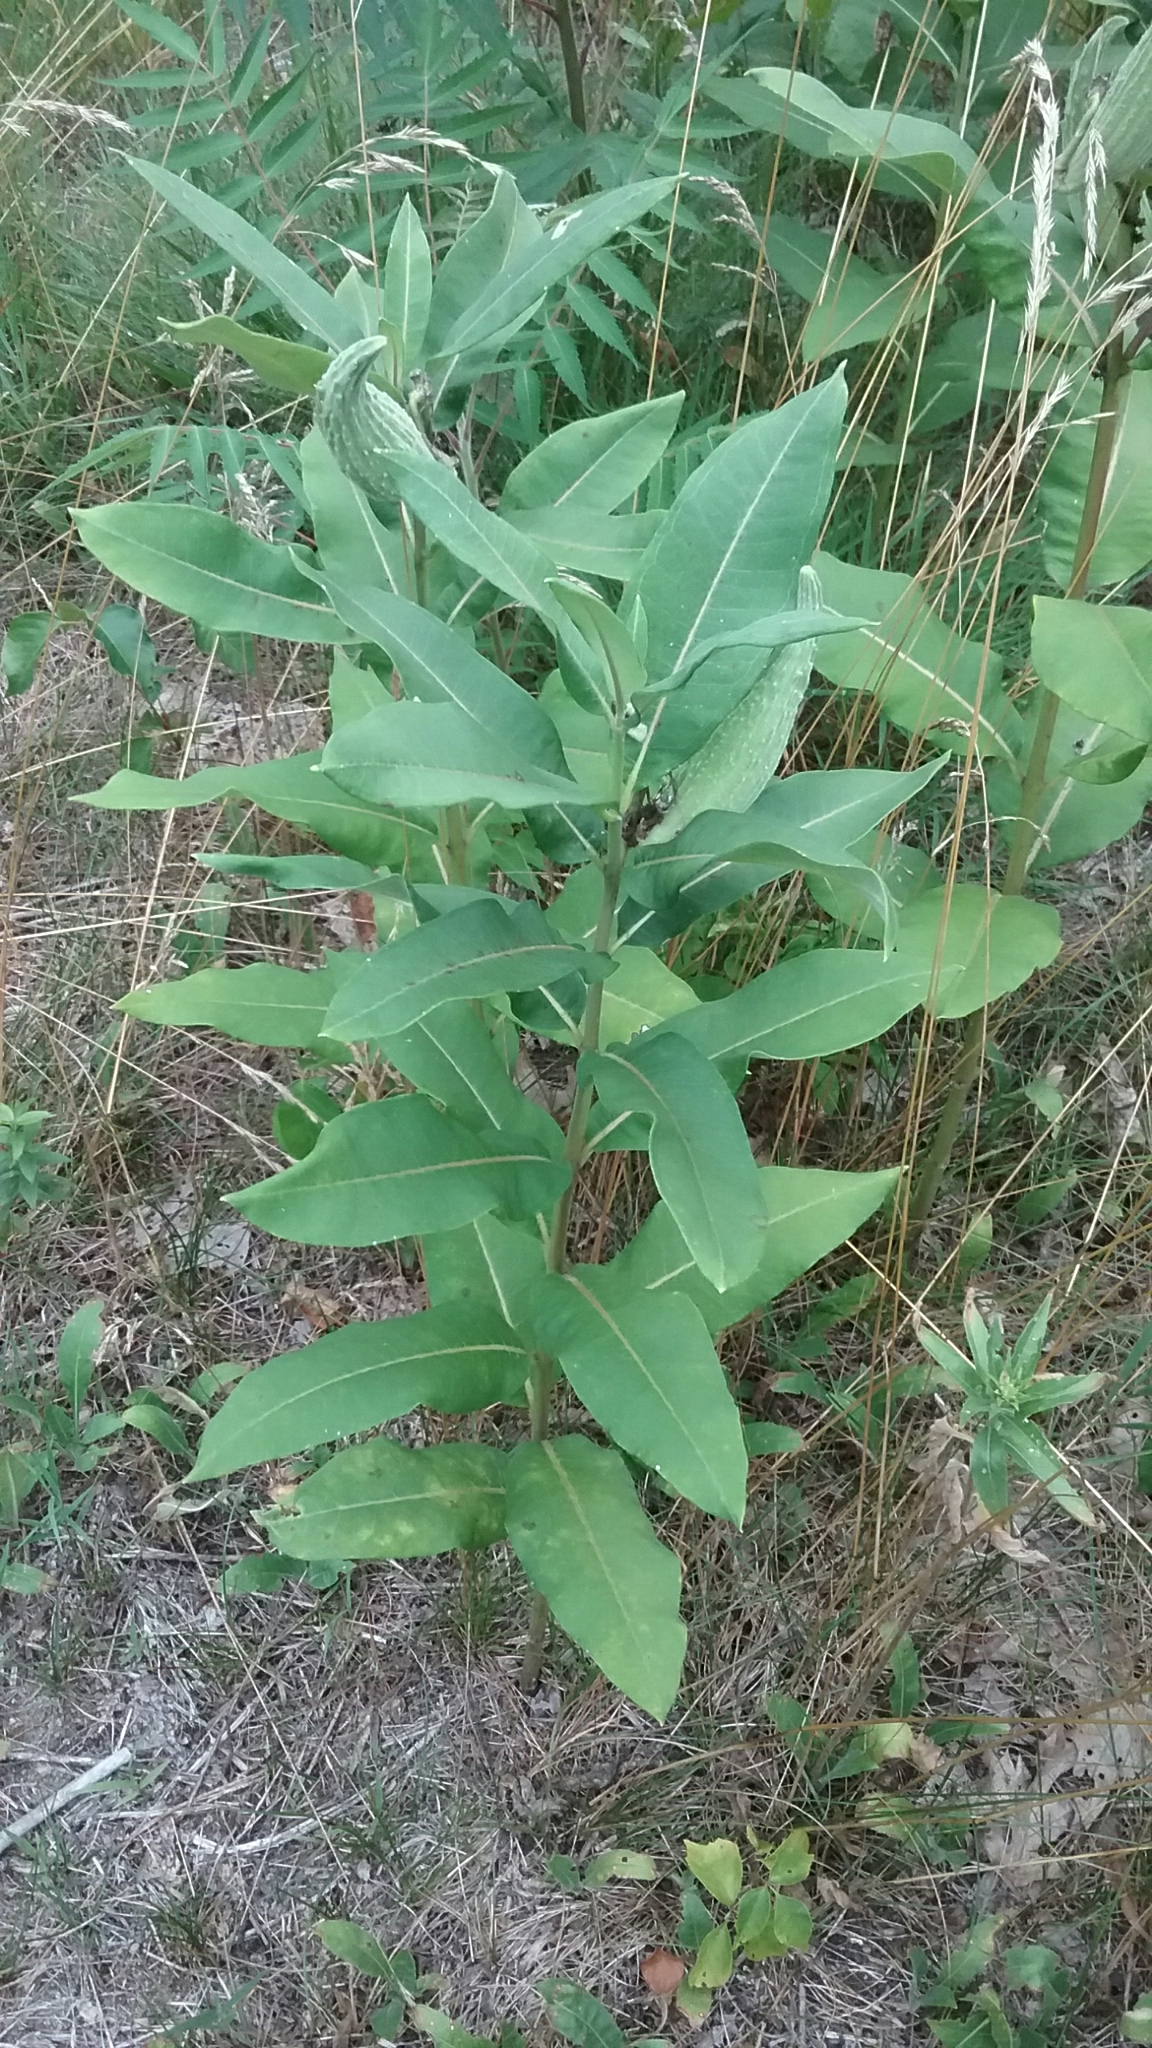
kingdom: Plantae
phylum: Tracheophyta
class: Magnoliopsida
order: Gentianales
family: Apocynaceae
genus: Asclepias
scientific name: Asclepias syriaca
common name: Common milkweed
